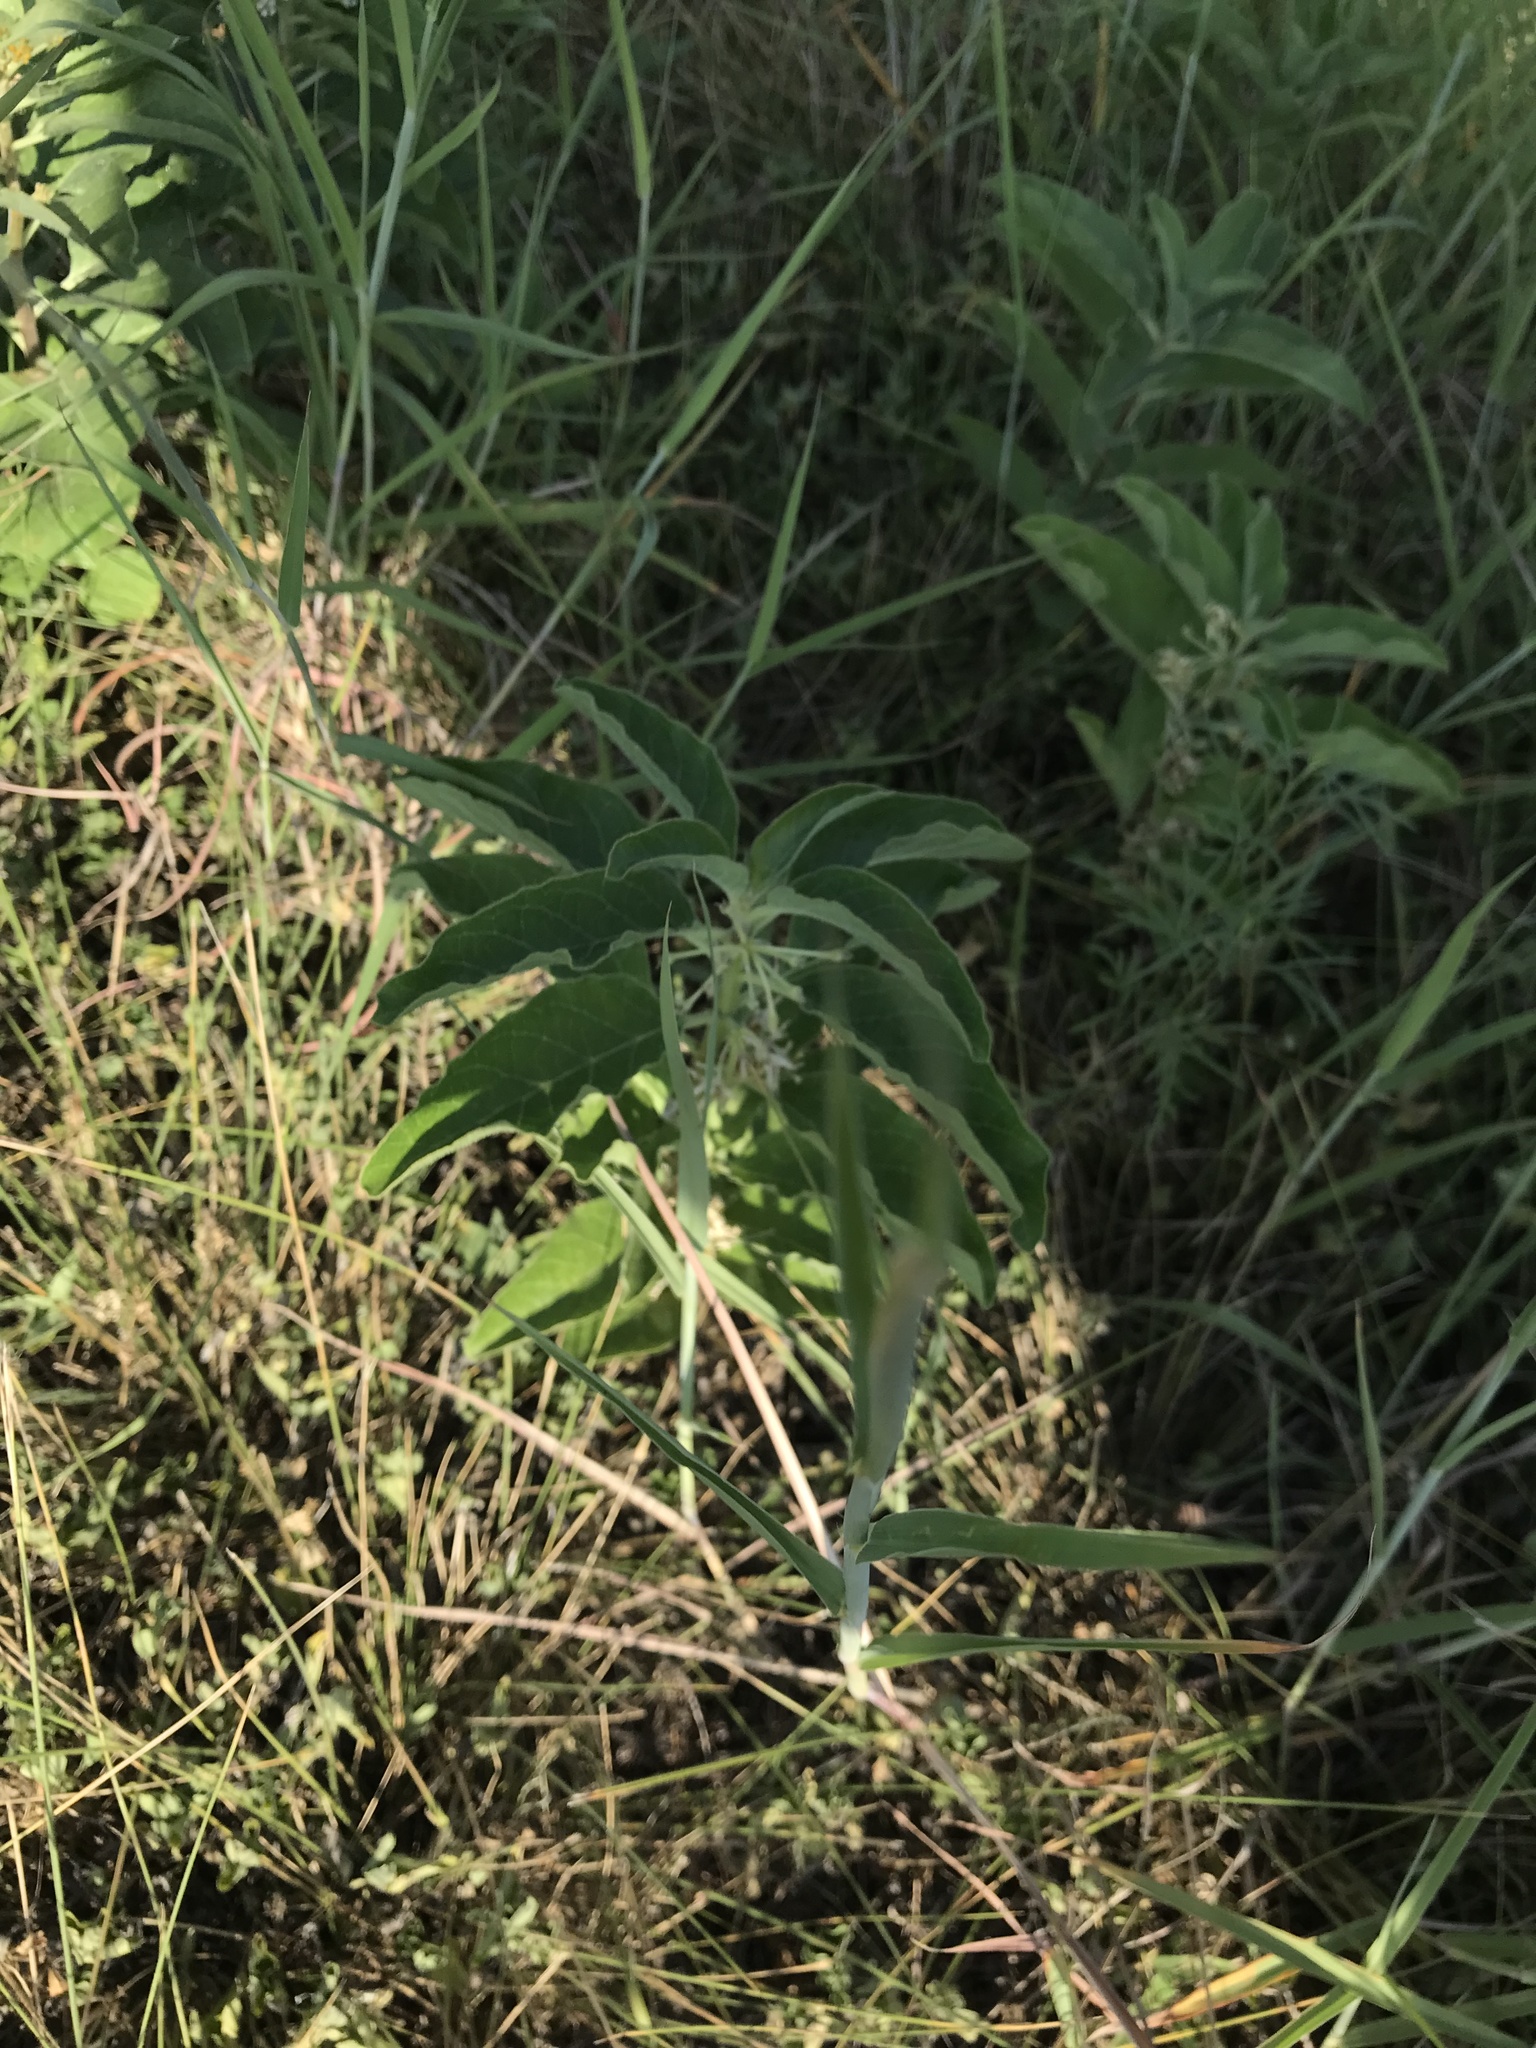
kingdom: Plantae
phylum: Tracheophyta
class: Magnoliopsida
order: Gentianales
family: Apocynaceae
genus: Asclepias
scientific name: Asclepias oenotheroides
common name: Zizotes milkweed
